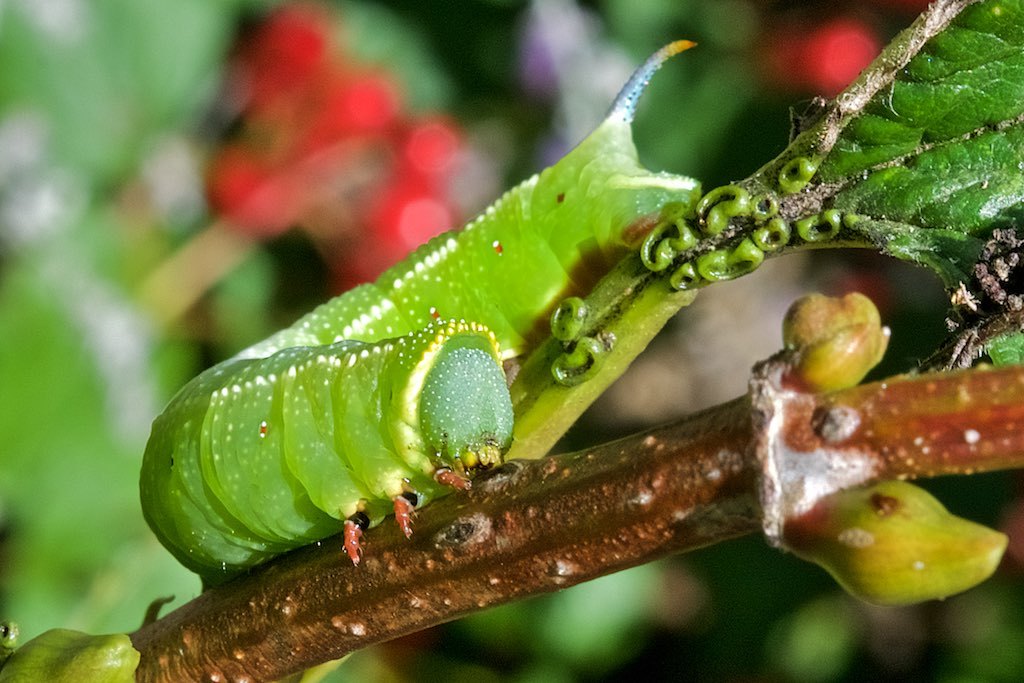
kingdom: Animalia
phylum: Arthropoda
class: Insecta
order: Lepidoptera
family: Sphingidae
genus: Hemaris
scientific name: Hemaris thysbe
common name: Common clear-wing
